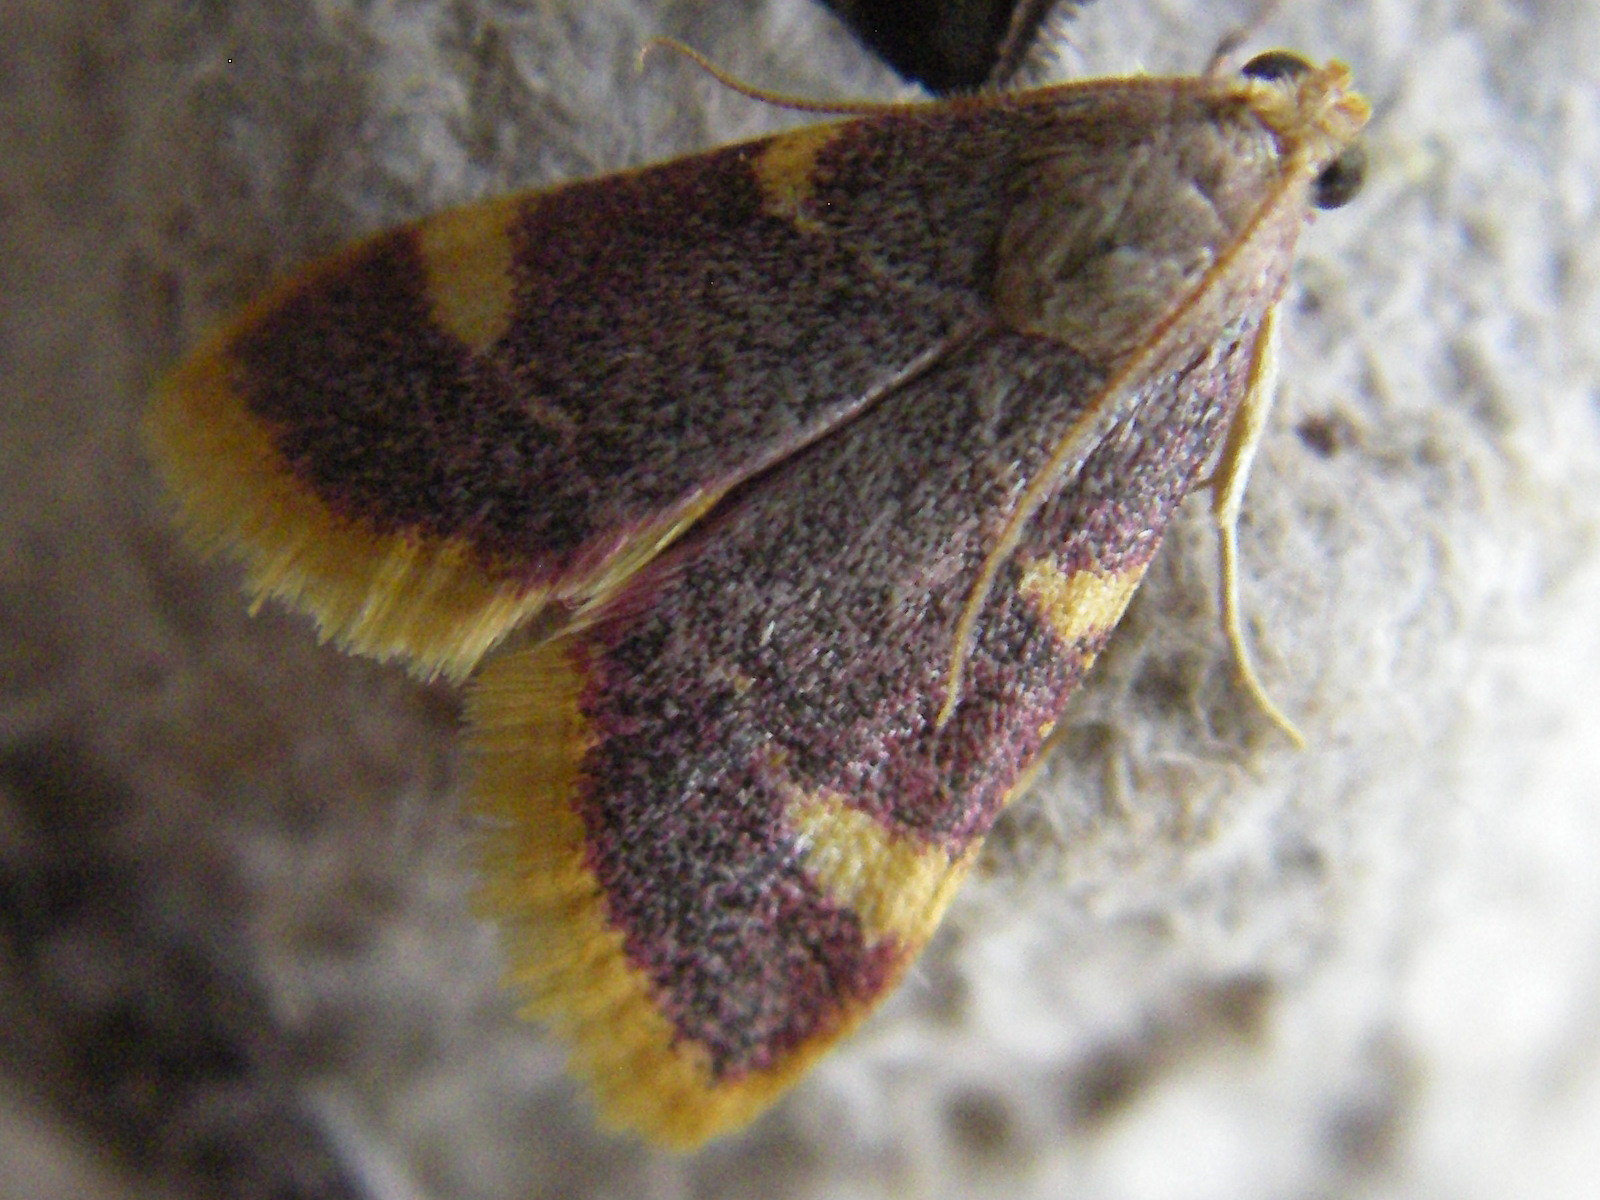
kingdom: Animalia
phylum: Arthropoda
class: Insecta
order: Lepidoptera
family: Pyralidae
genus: Hypsopygia
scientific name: Hypsopygia costalis
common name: Gold triangle
